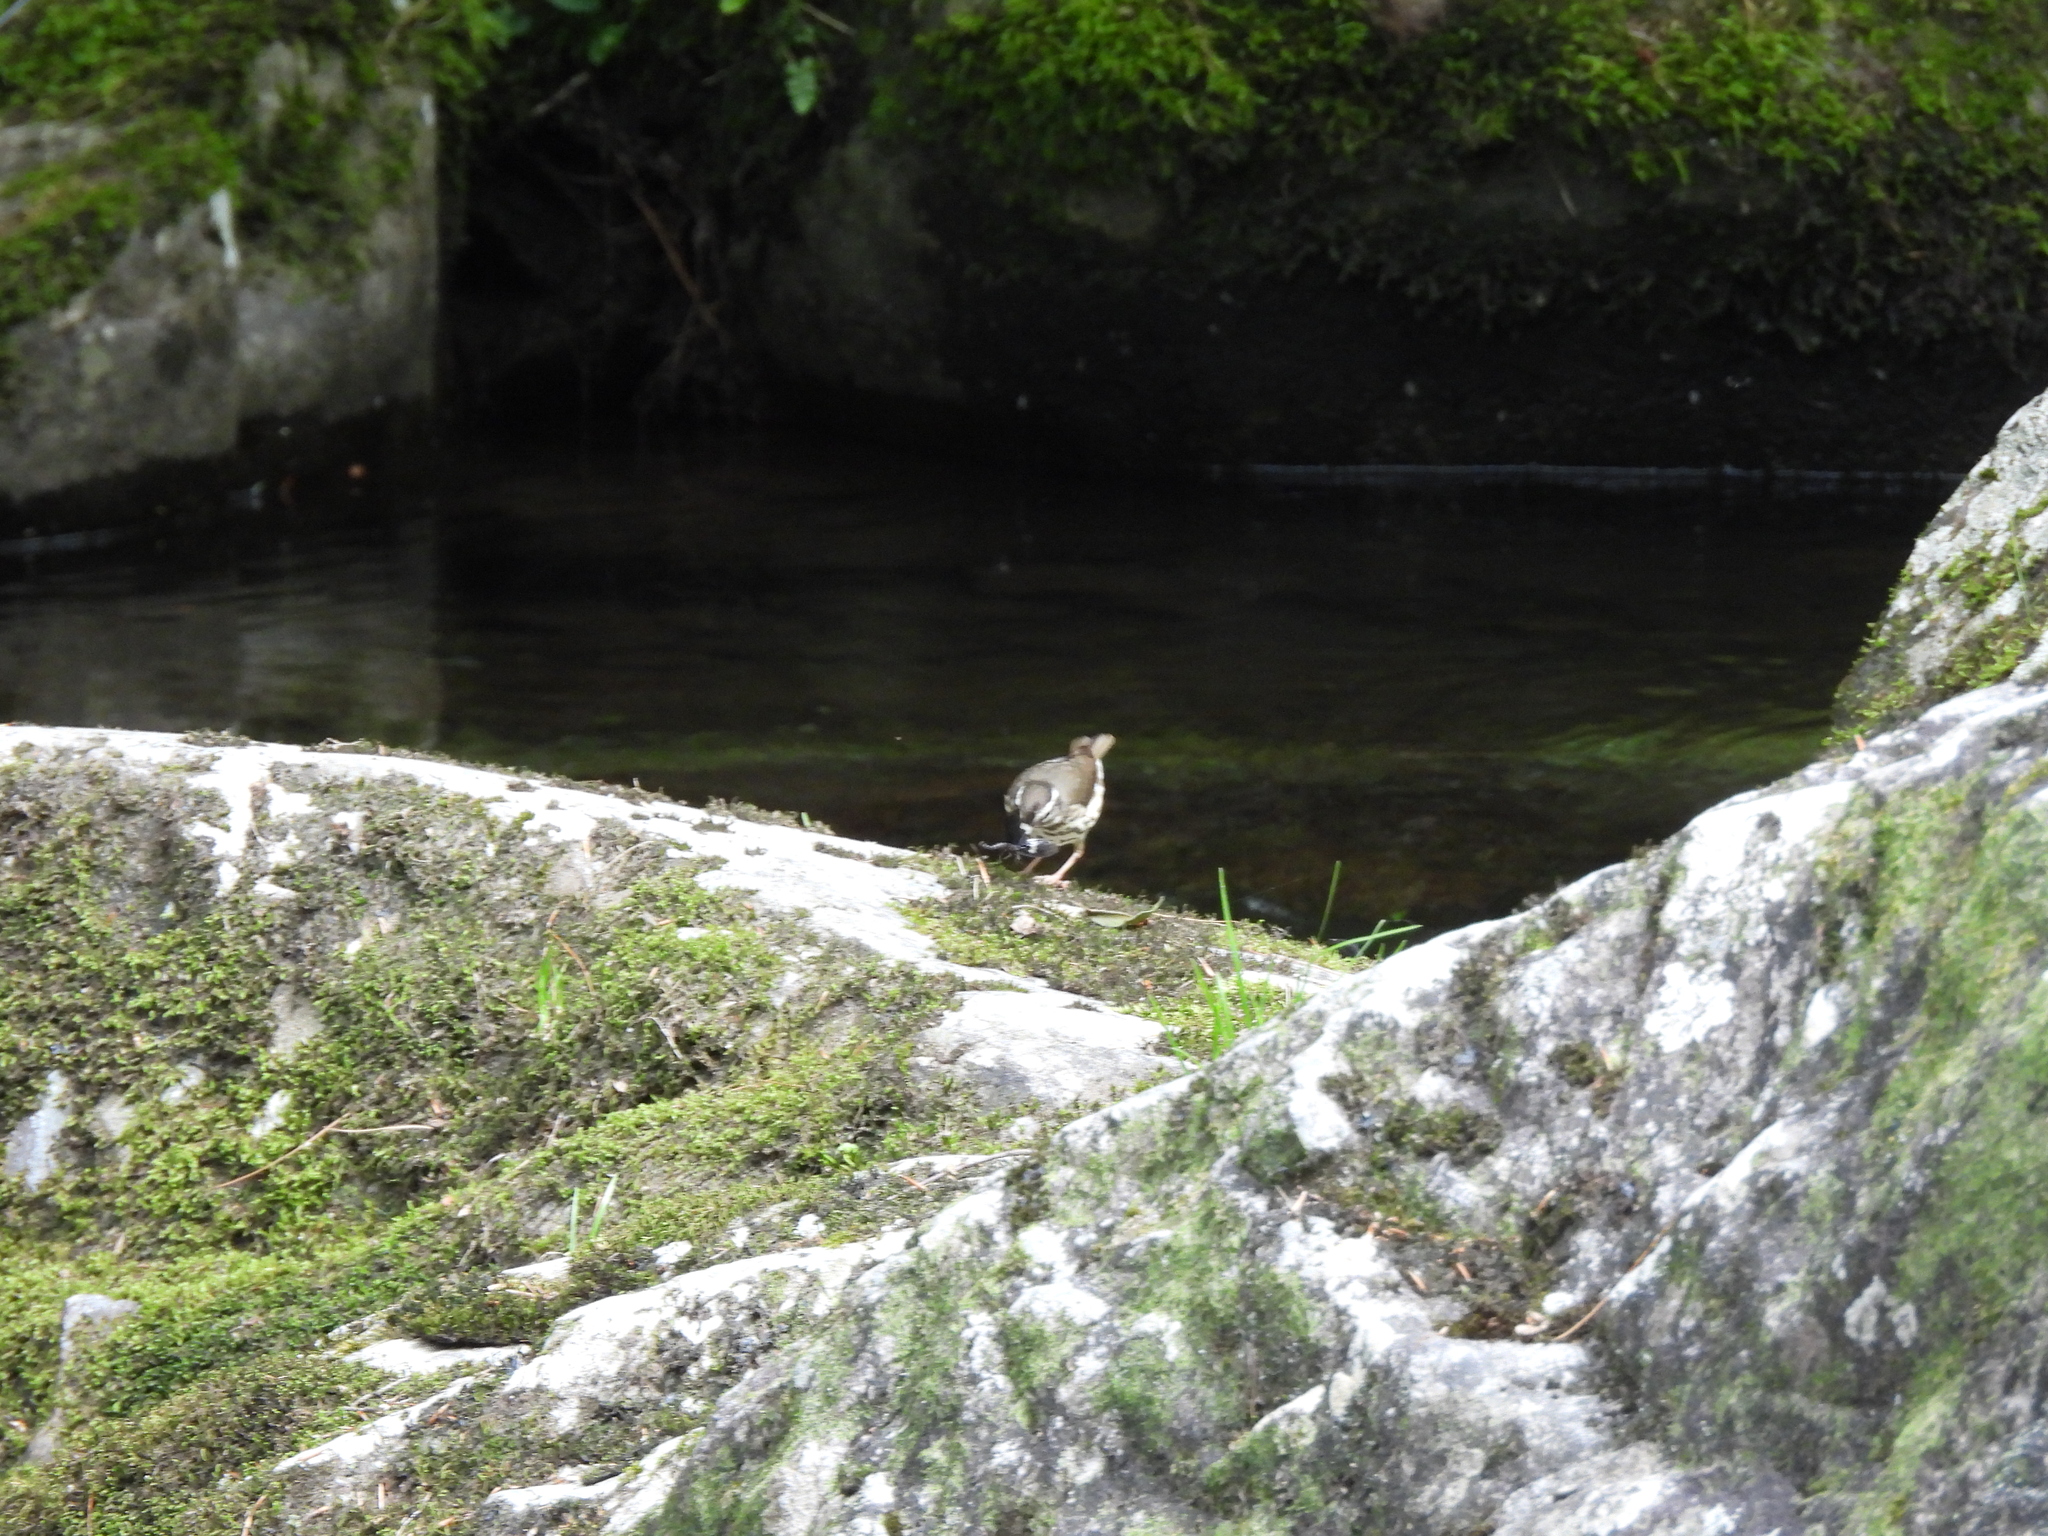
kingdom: Animalia
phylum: Chordata
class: Aves
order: Passeriformes
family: Parulidae
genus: Parkesia
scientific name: Parkesia motacilla
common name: Louisiana waterthrush
